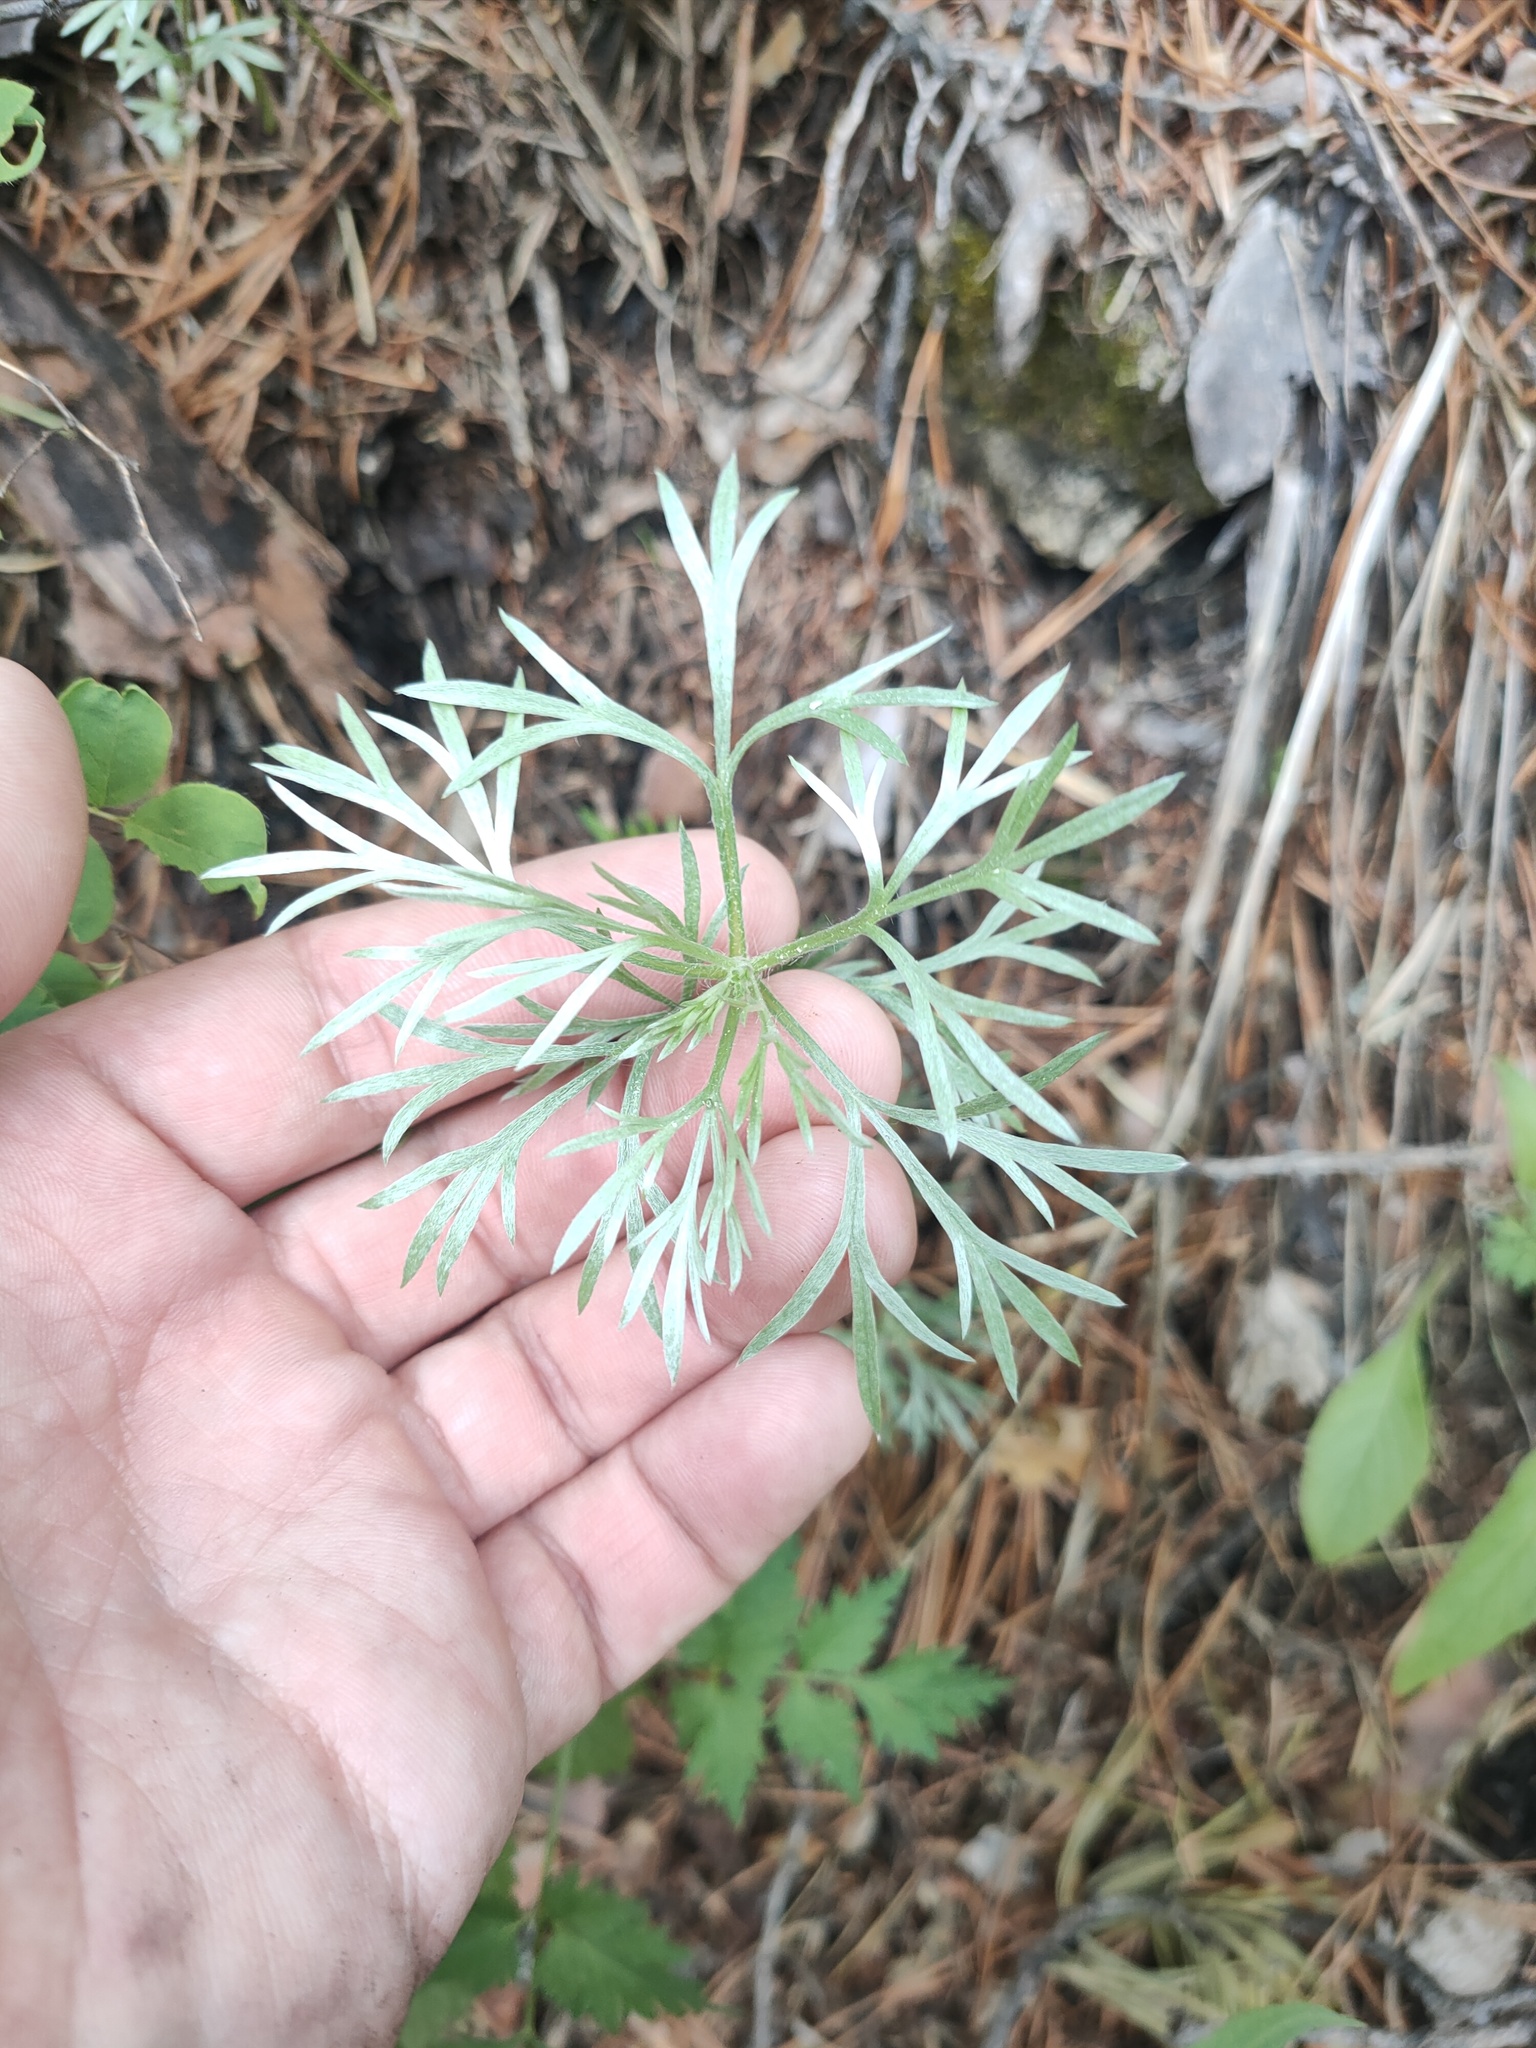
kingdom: Plantae
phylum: Tracheophyta
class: Magnoliopsida
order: Asterales
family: Asteraceae
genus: Artemisia
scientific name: Artemisia sericea
